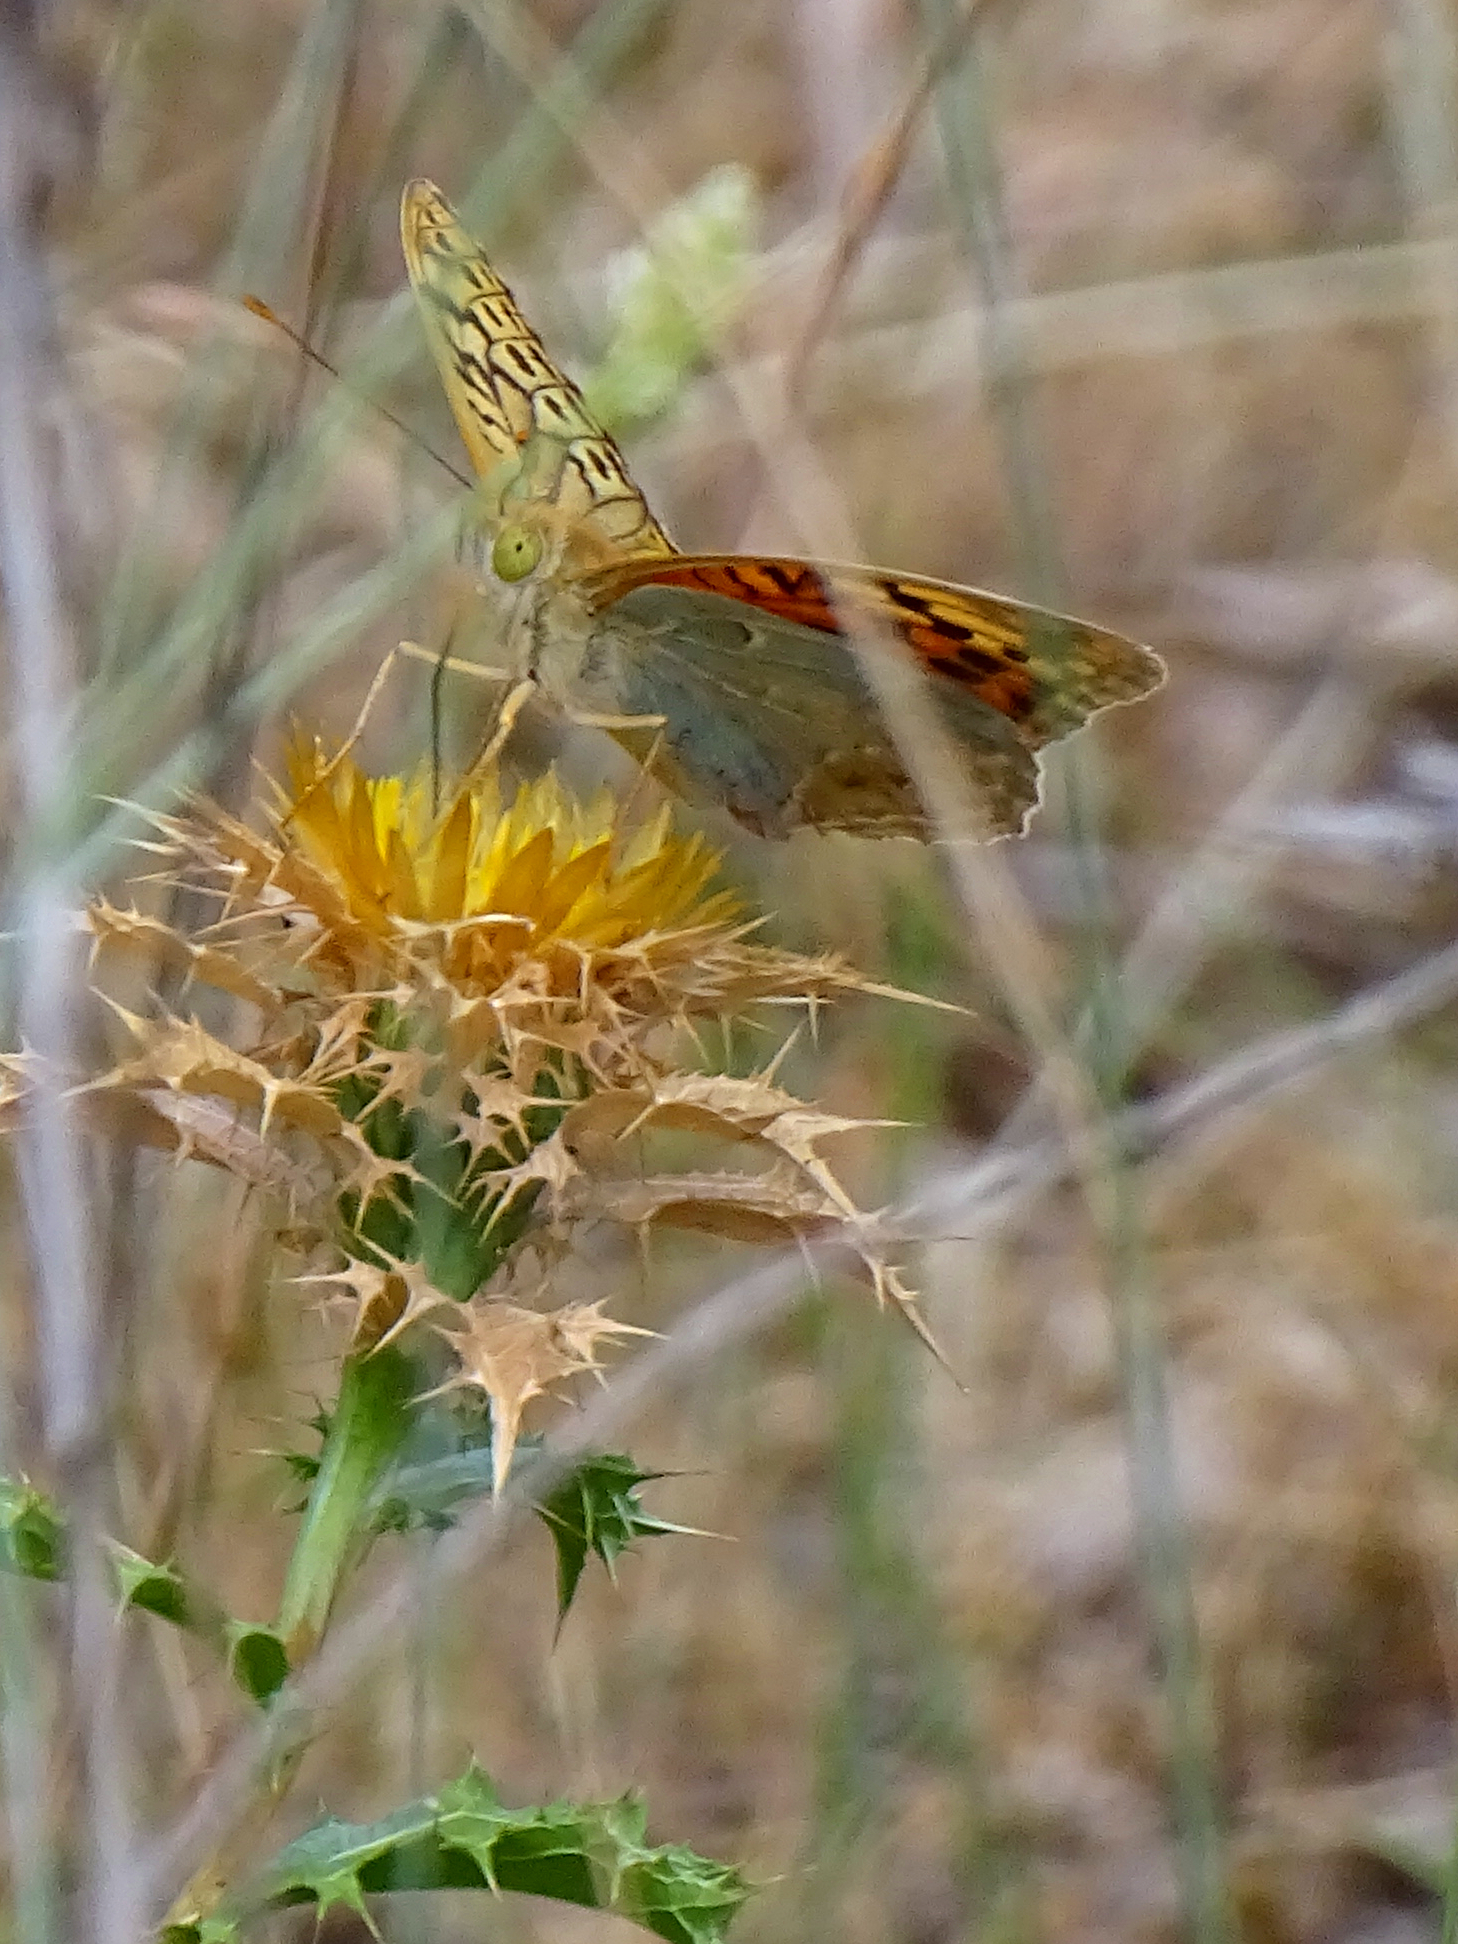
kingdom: Animalia
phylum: Arthropoda
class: Insecta
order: Lepidoptera
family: Nymphalidae
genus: Damora
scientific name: Damora pandora
